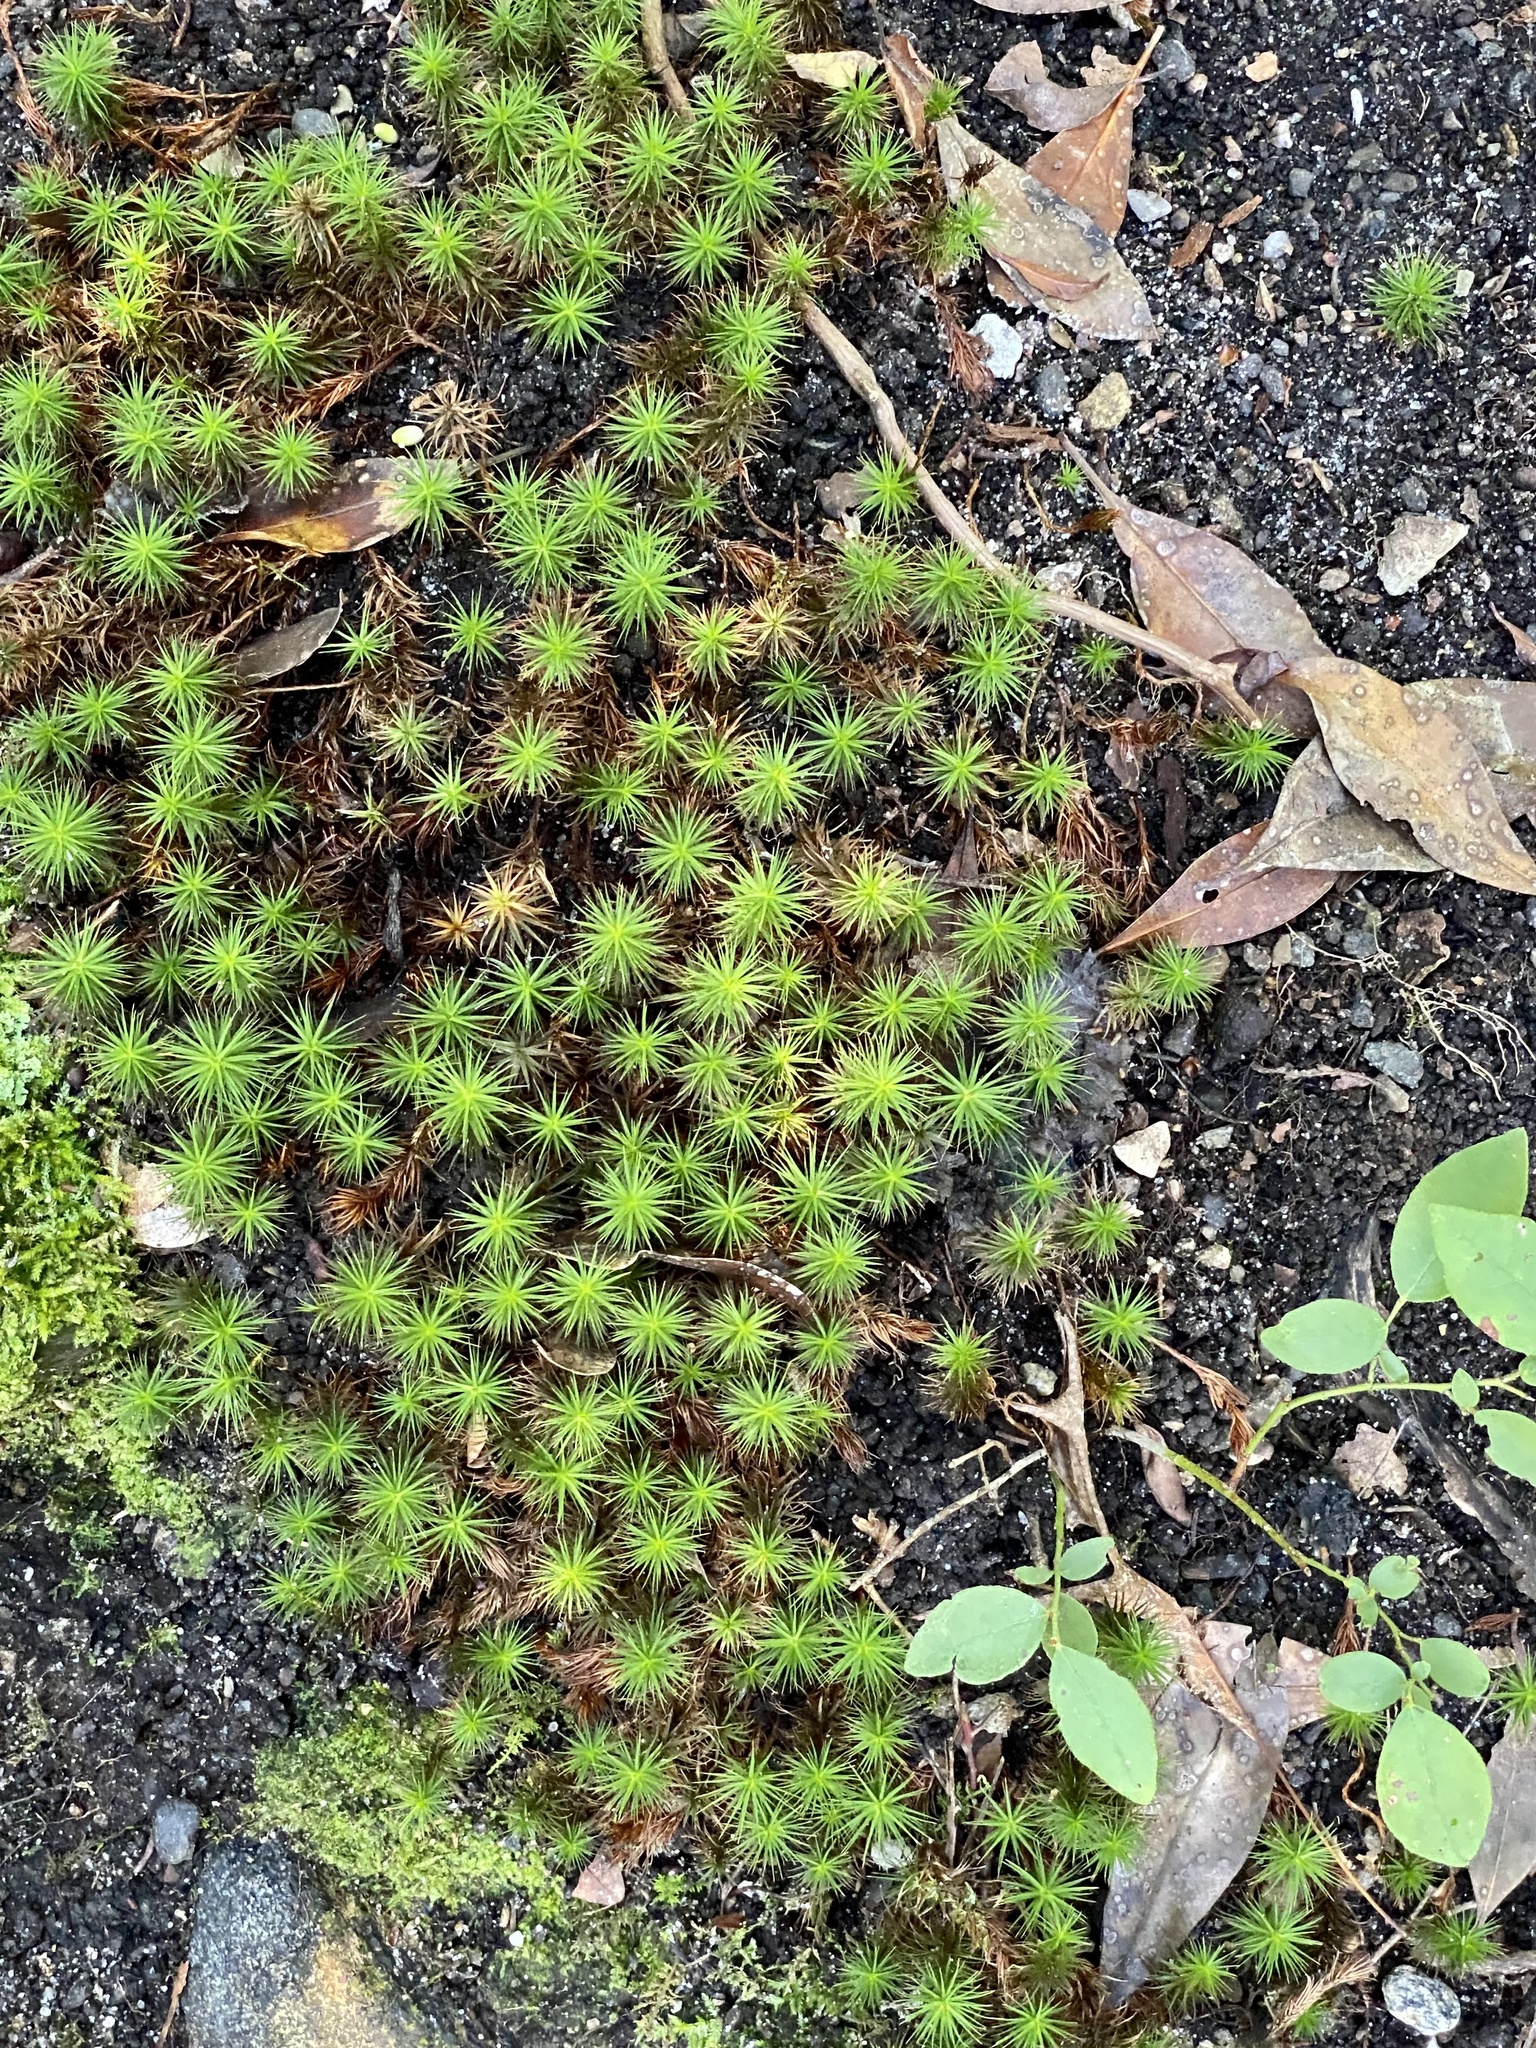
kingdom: Plantae
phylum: Bryophyta
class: Polytrichopsida
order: Polytrichales
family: Polytrichaceae
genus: Polytrichum
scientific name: Polytrichum commune
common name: Common haircap
